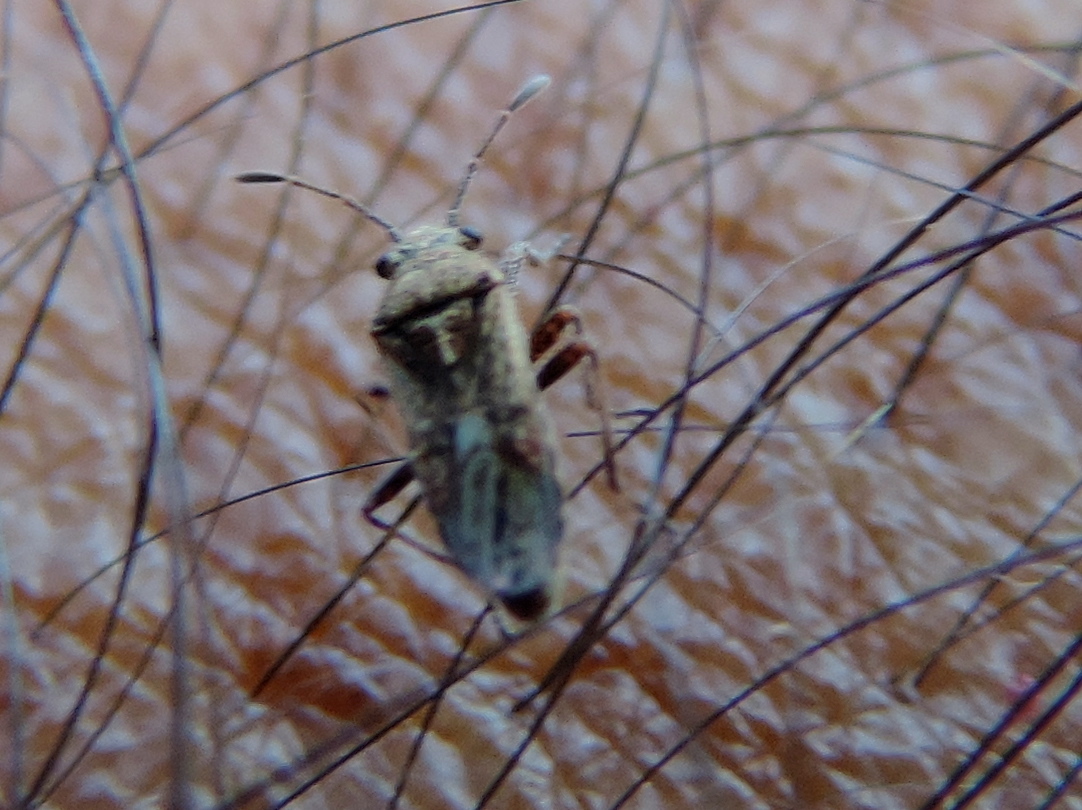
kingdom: Animalia
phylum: Arthropoda
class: Insecta
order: Hemiptera
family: Lygaeidae
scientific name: Lygaeidae
